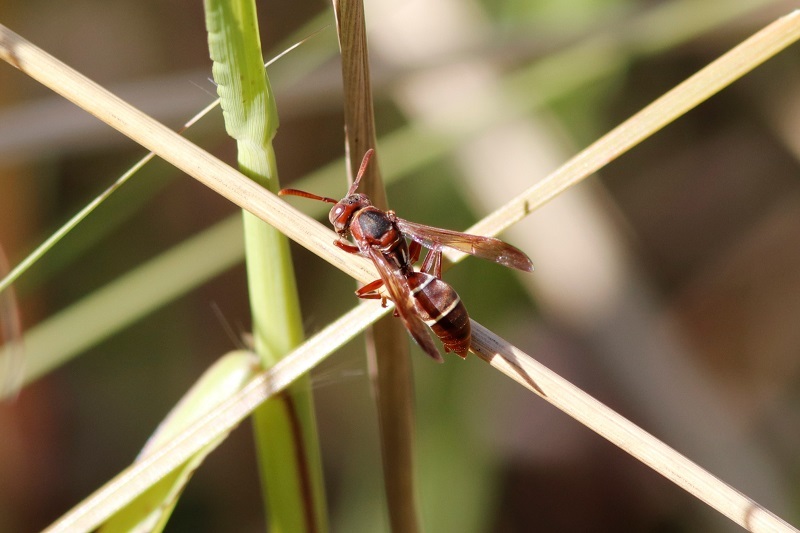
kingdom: Animalia
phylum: Arthropoda
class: Insecta
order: Hymenoptera
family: Eumenidae
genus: Polistes
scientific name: Polistes marginalis
